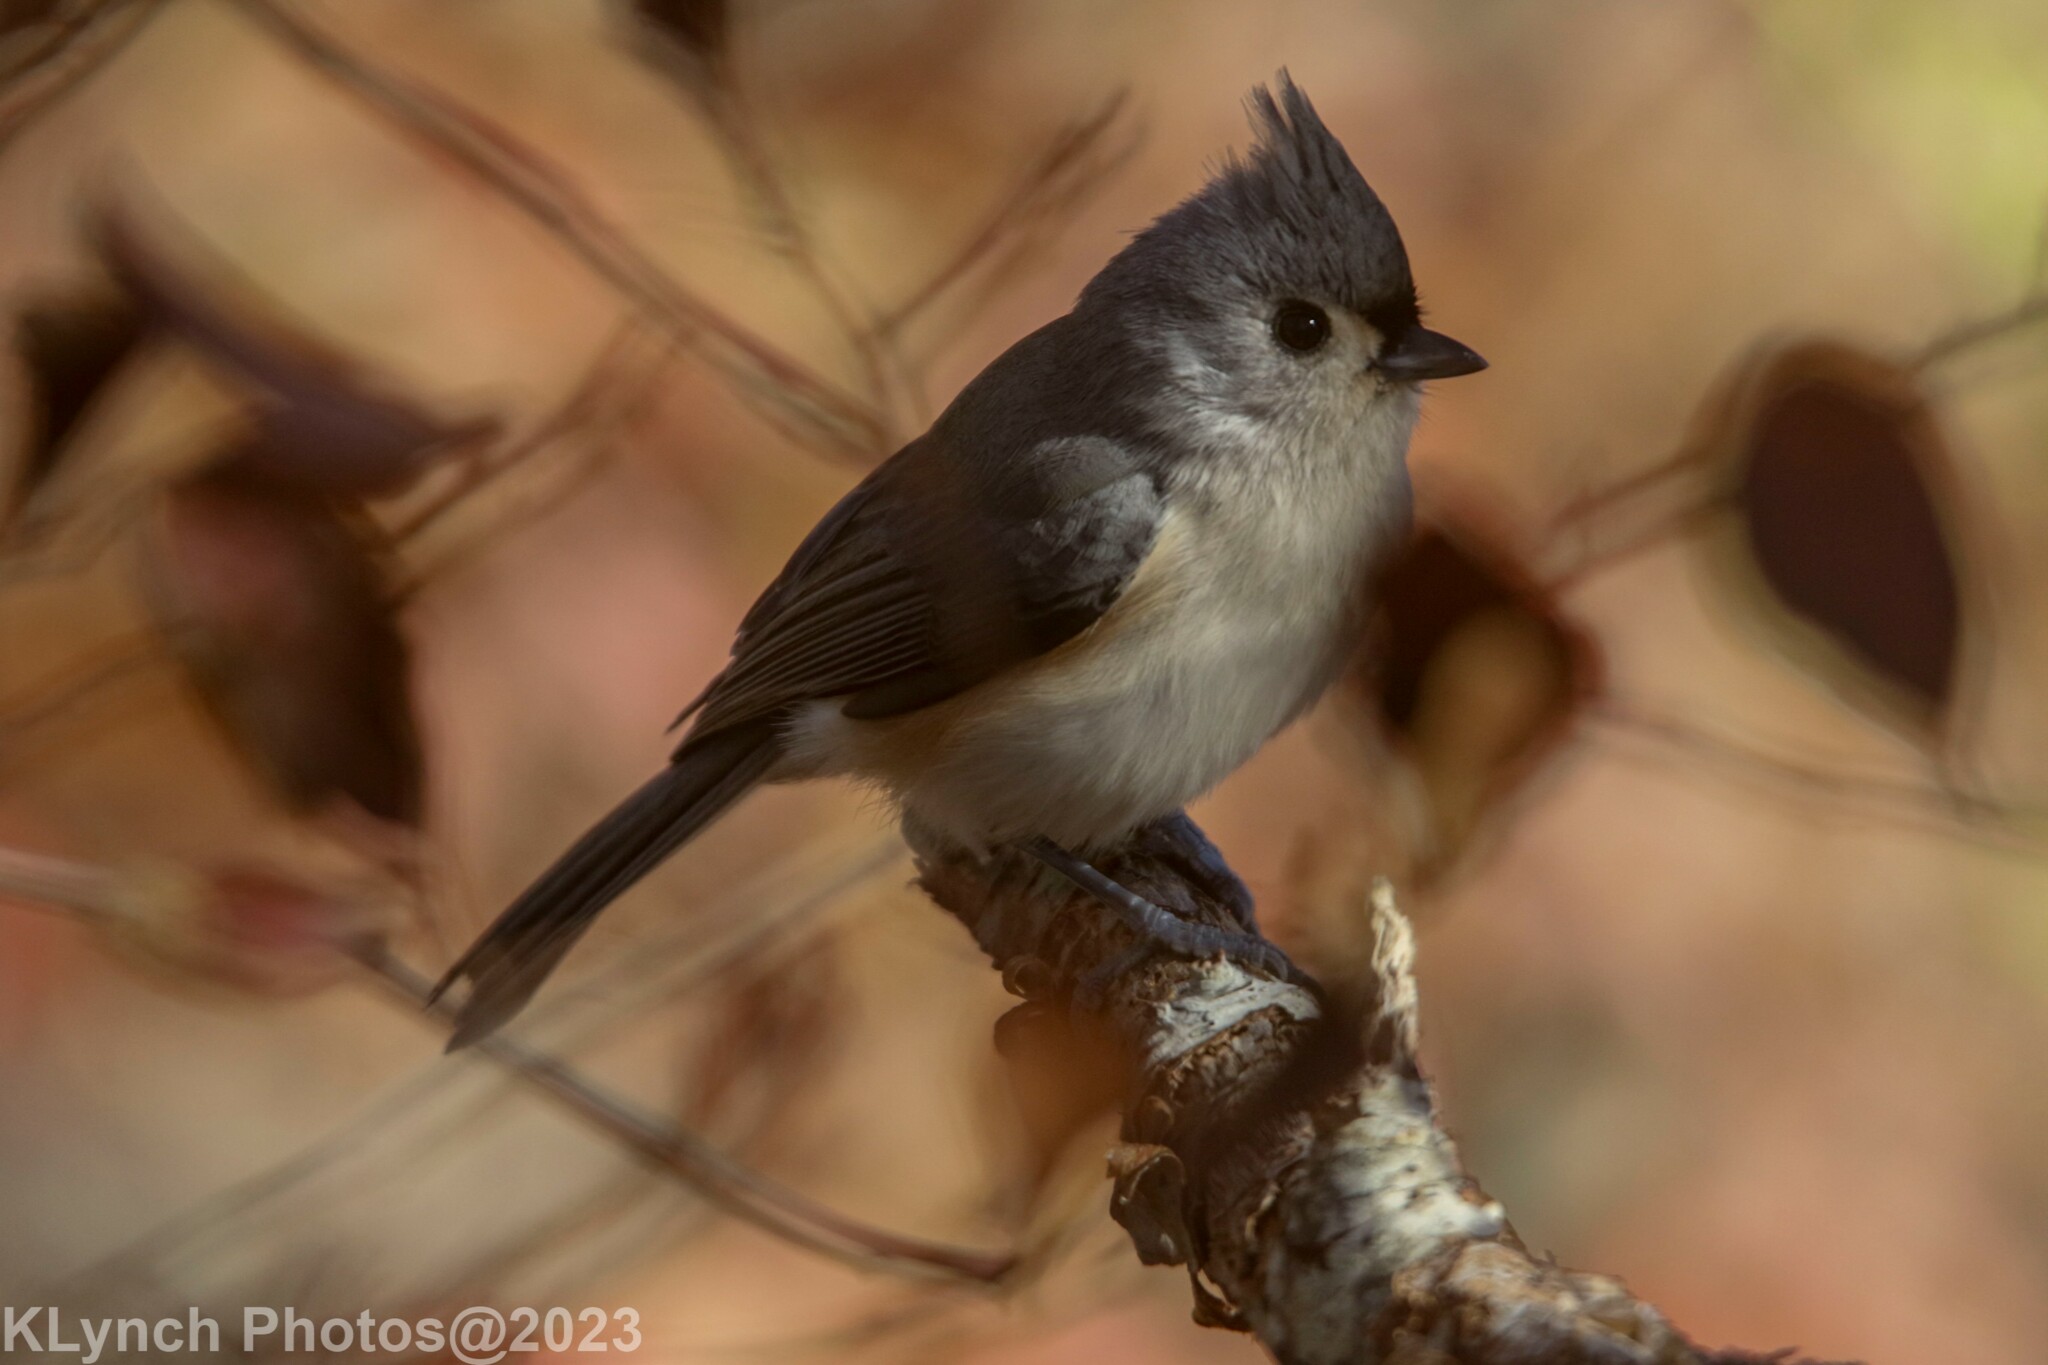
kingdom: Animalia
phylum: Chordata
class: Aves
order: Passeriformes
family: Paridae
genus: Baeolophus
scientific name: Baeolophus bicolor
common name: Tufted titmouse
